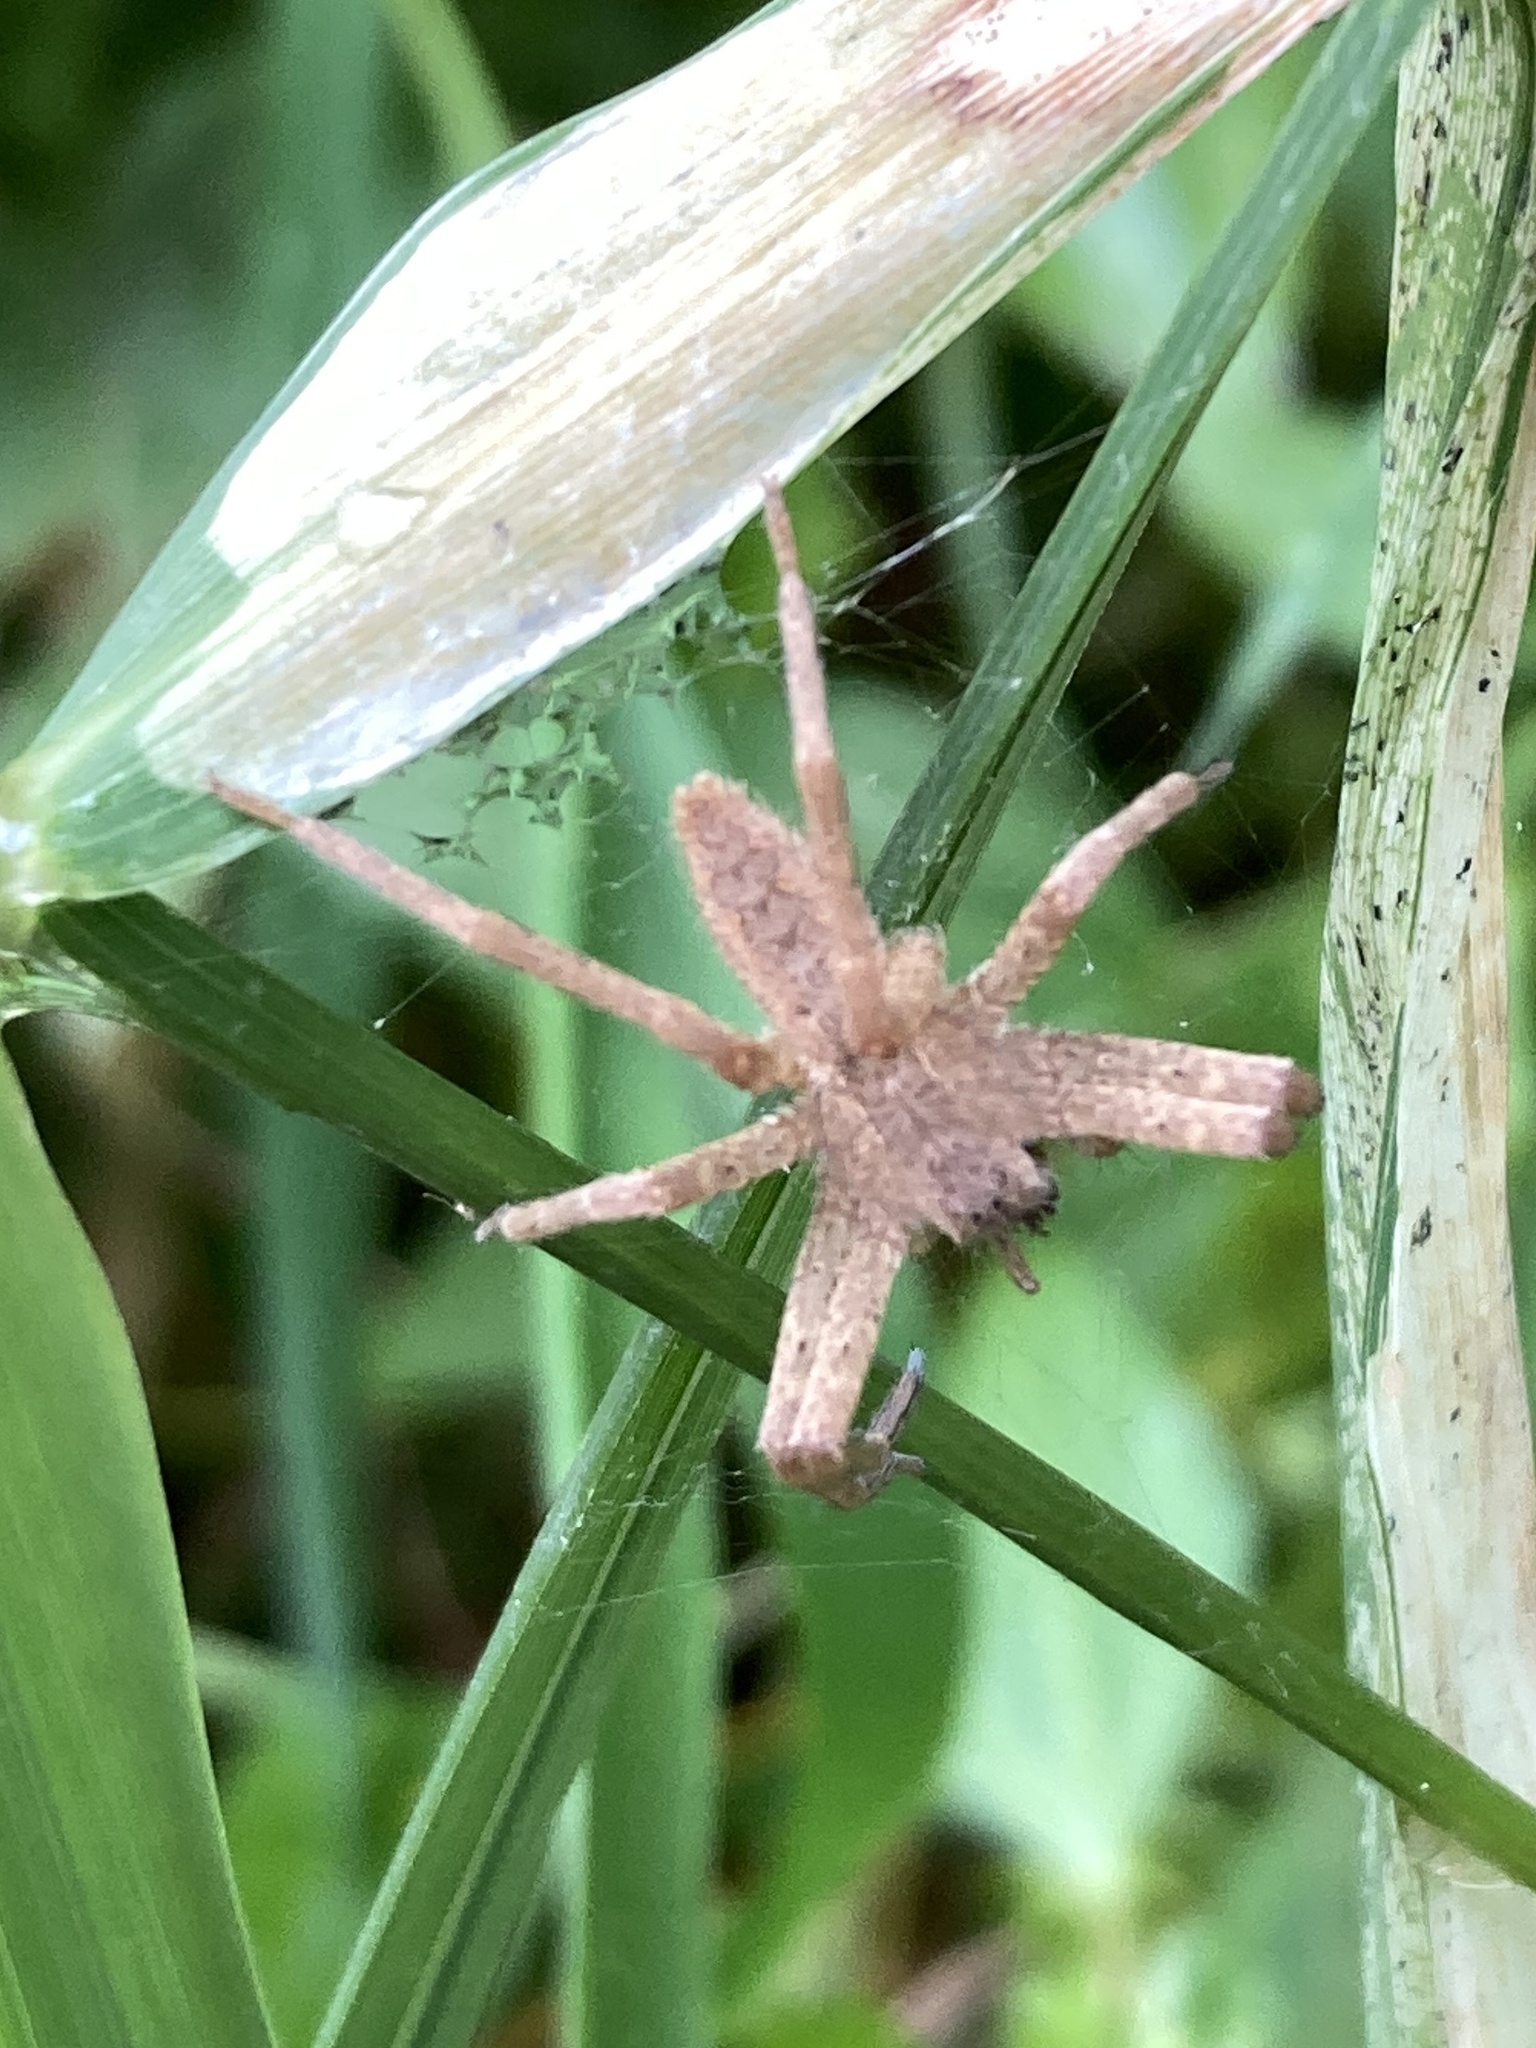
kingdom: Animalia
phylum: Arthropoda
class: Arachnida
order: Araneae
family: Pisauridae
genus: Pisaurina
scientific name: Pisaurina mira
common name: American nursery web spider
